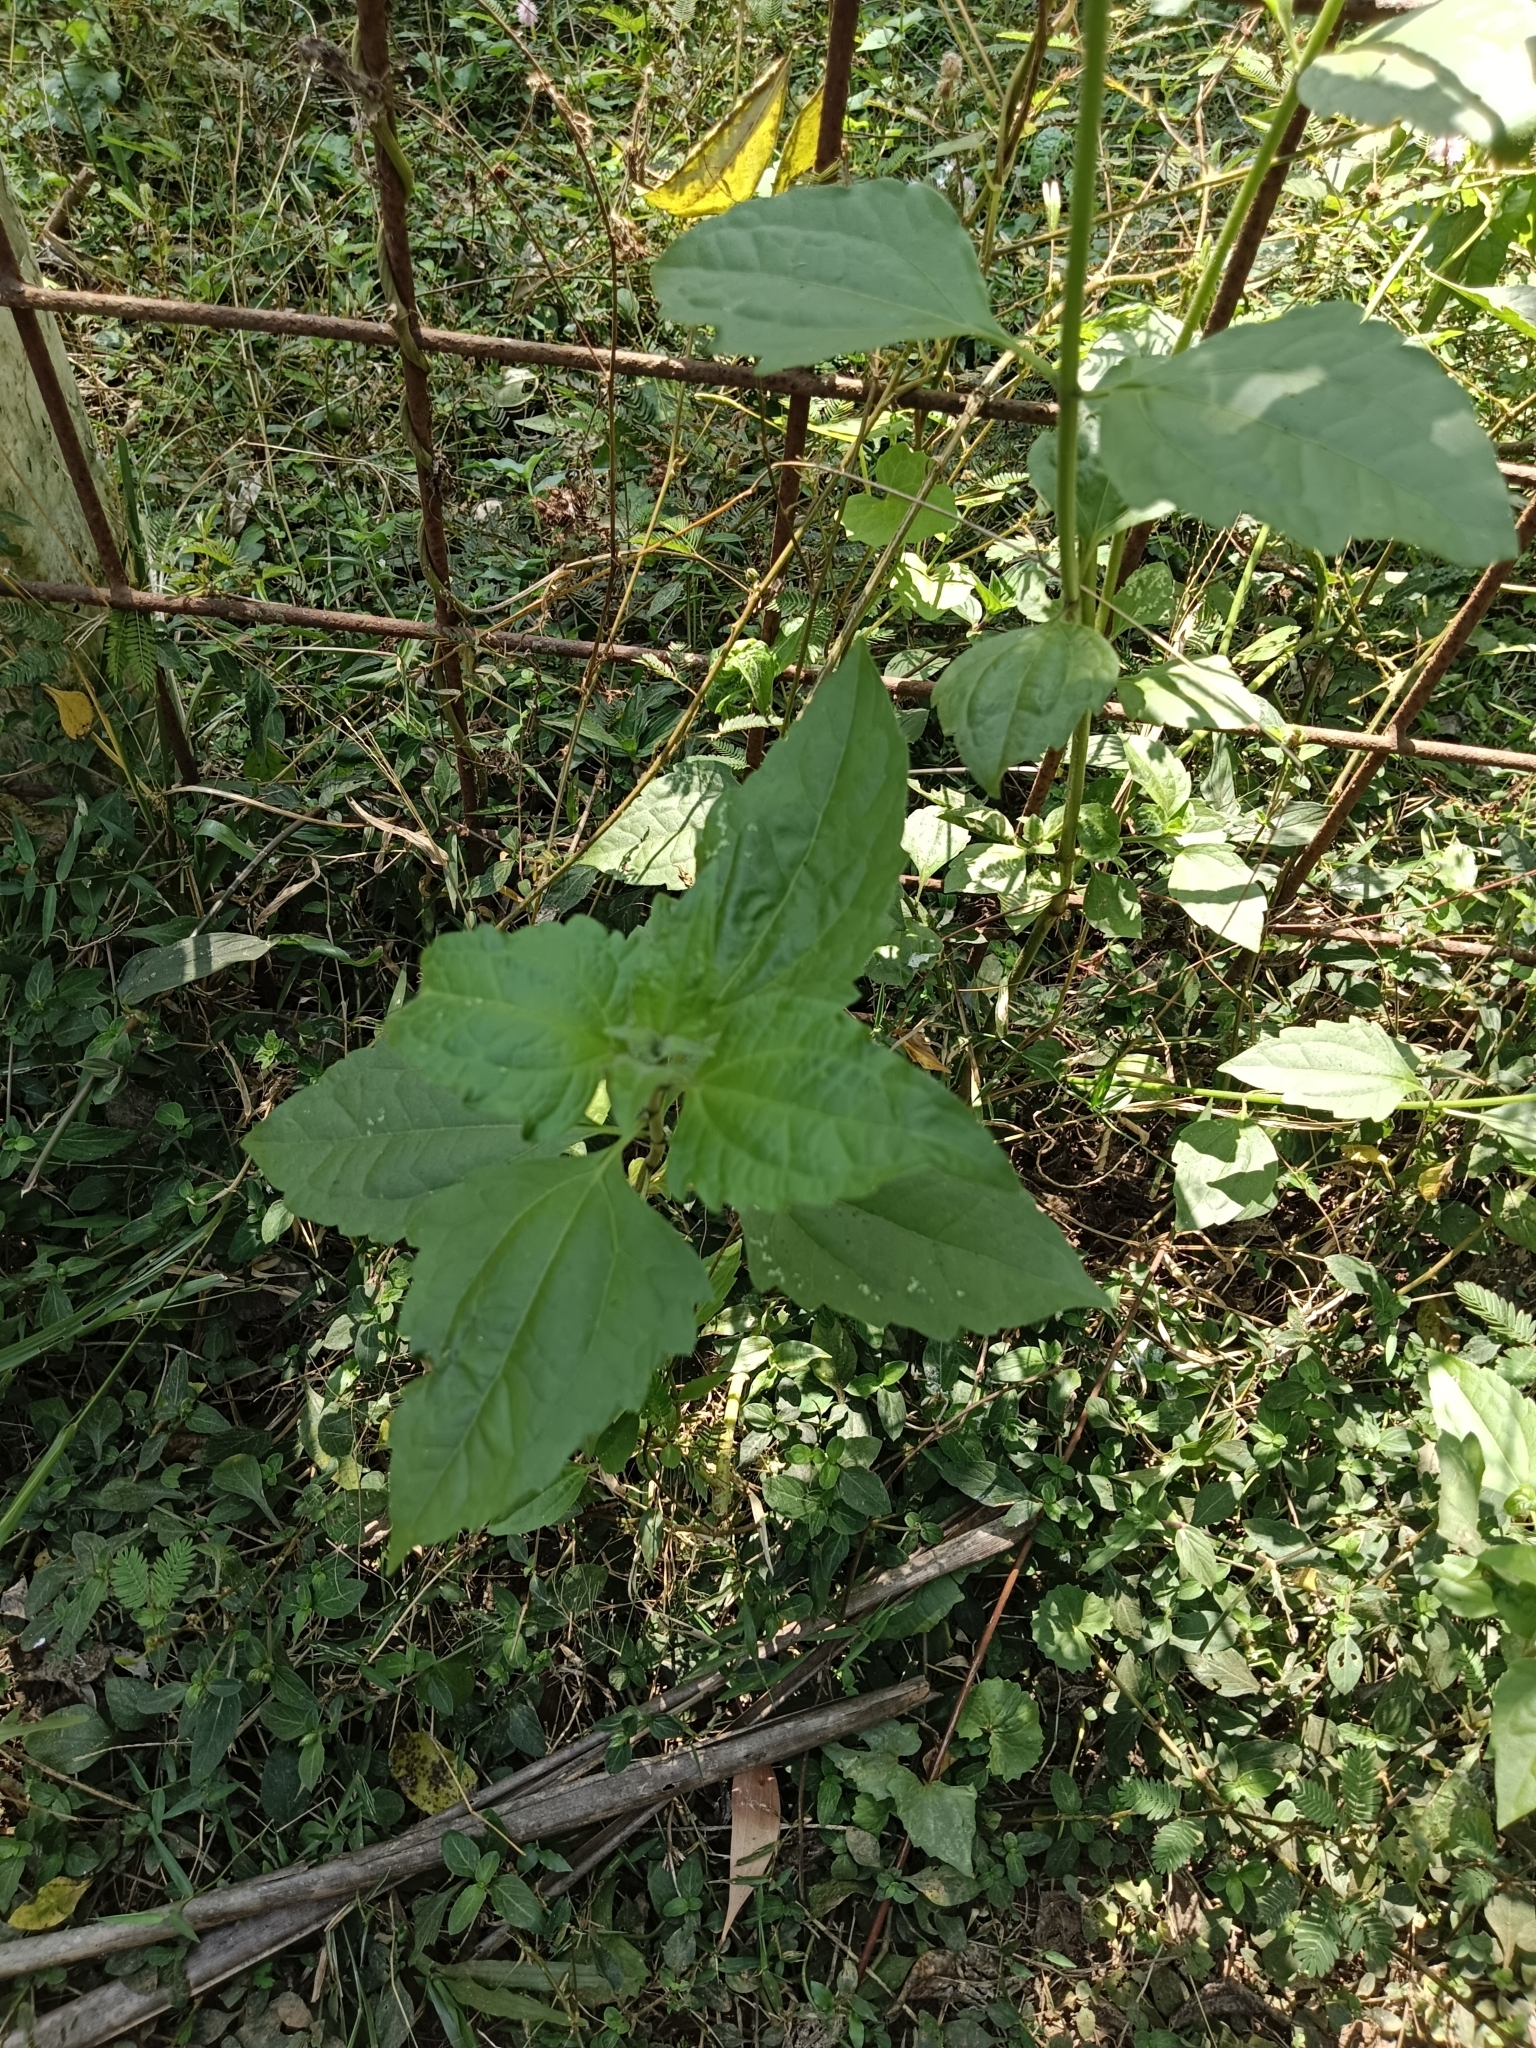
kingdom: Plantae
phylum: Tracheophyta
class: Magnoliopsida
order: Asterales
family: Asteraceae
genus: Chromolaena
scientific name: Chromolaena odorata
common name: Siamweed
